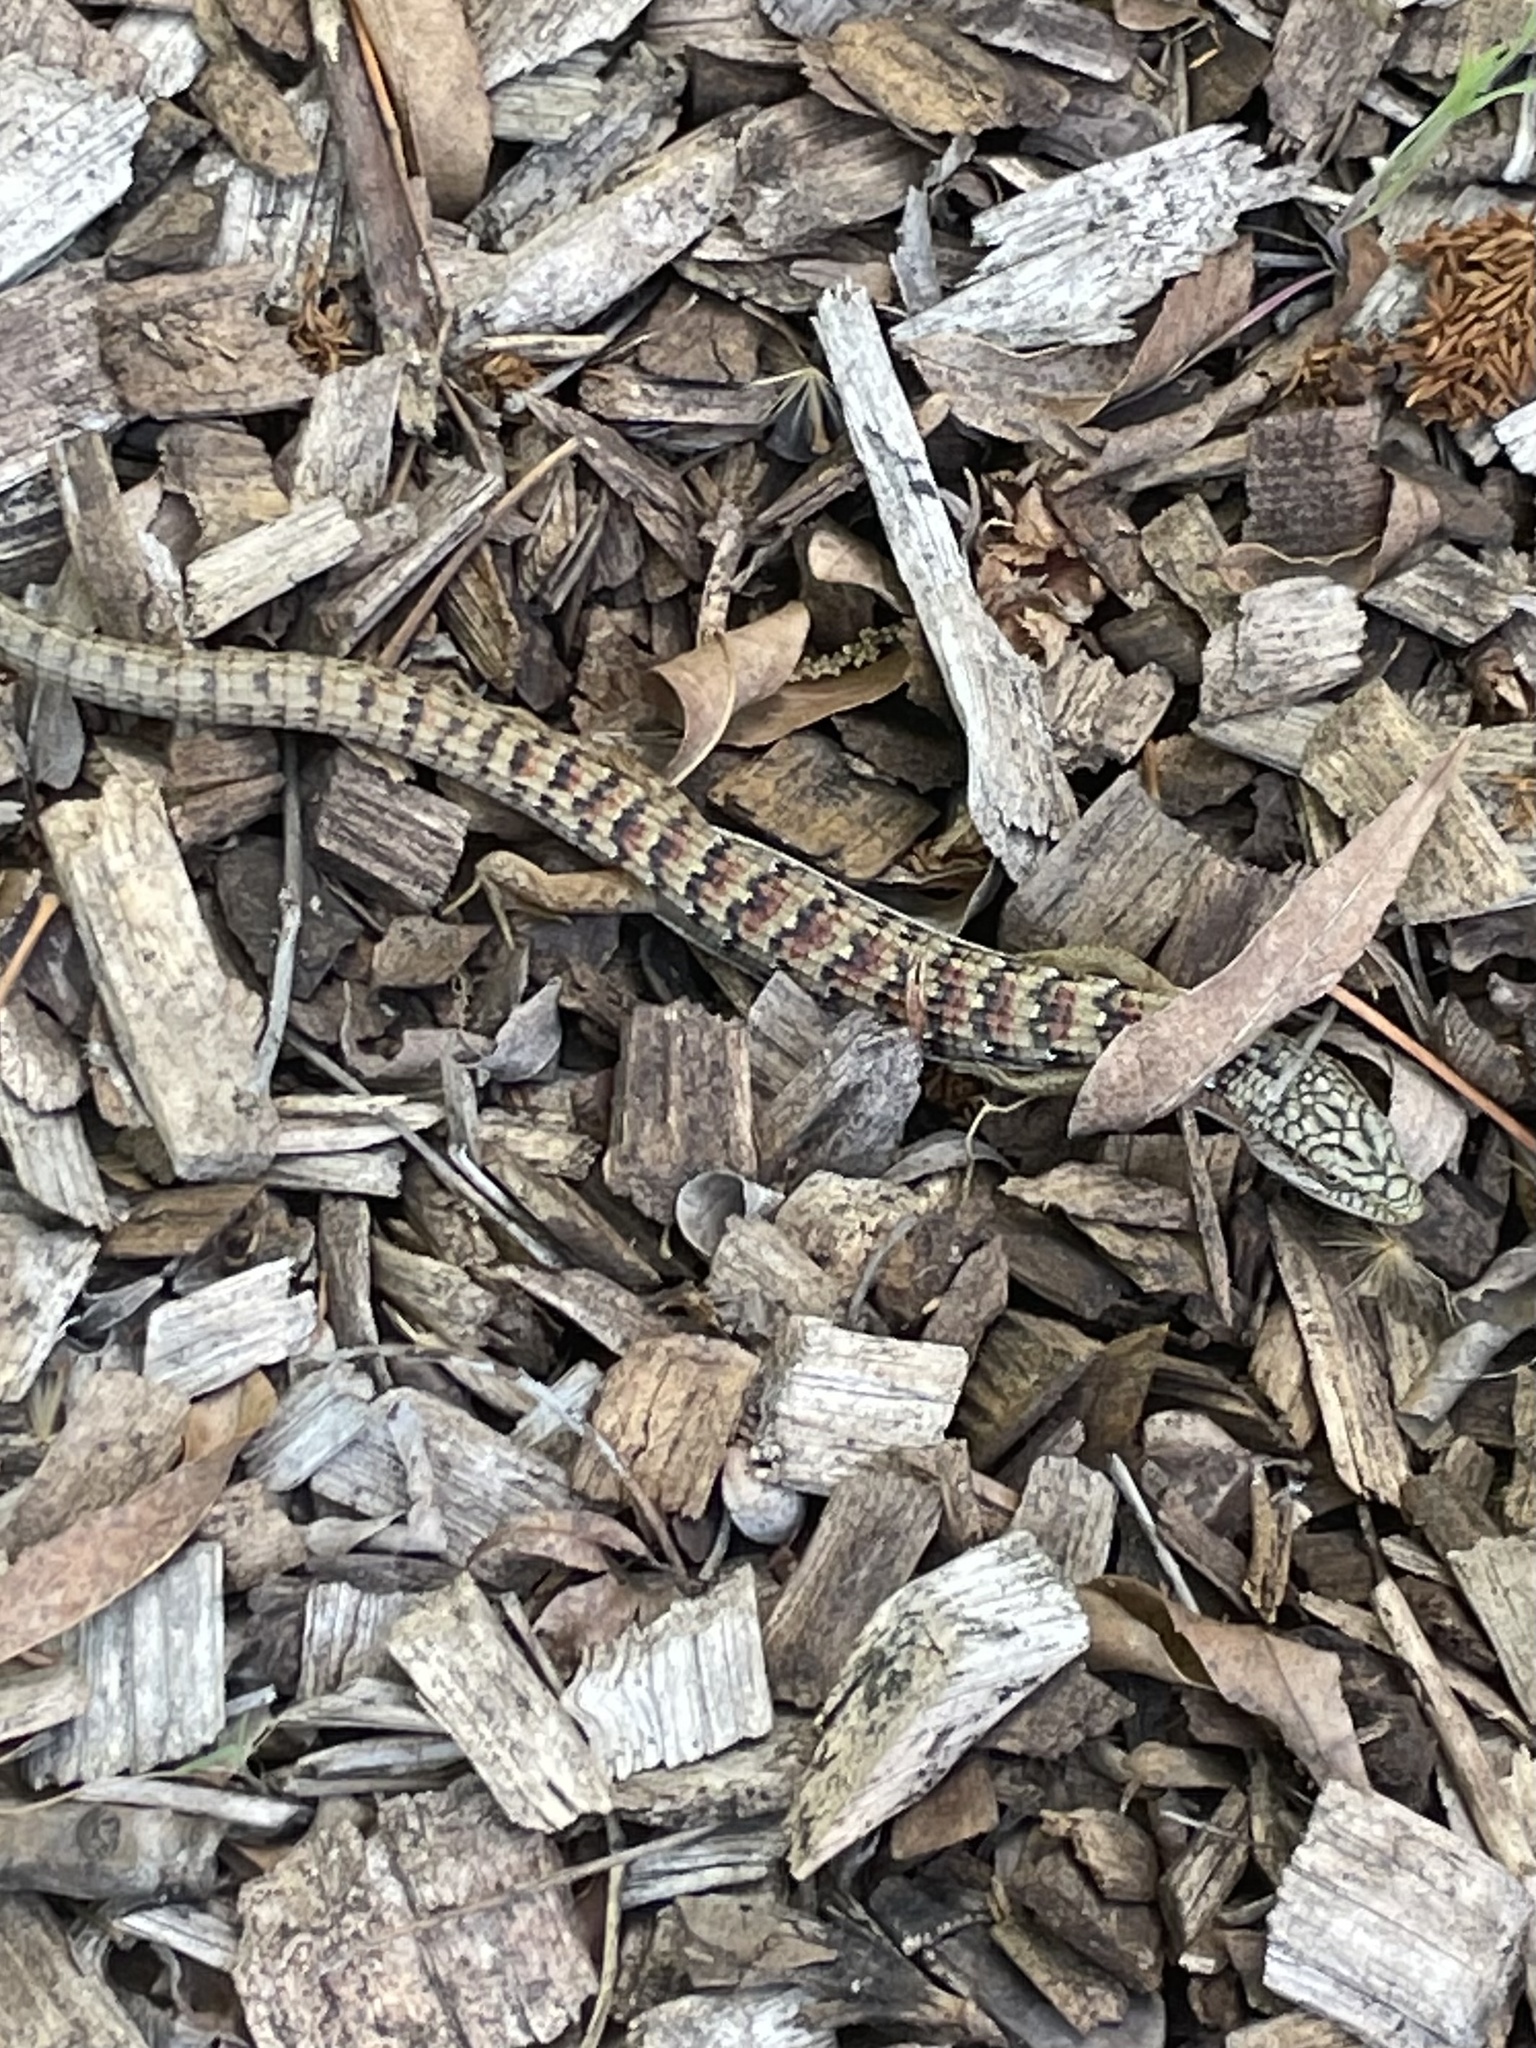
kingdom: Animalia
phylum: Chordata
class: Squamata
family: Anguidae
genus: Elgaria
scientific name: Elgaria multicarinata
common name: Southern alligator lizard
